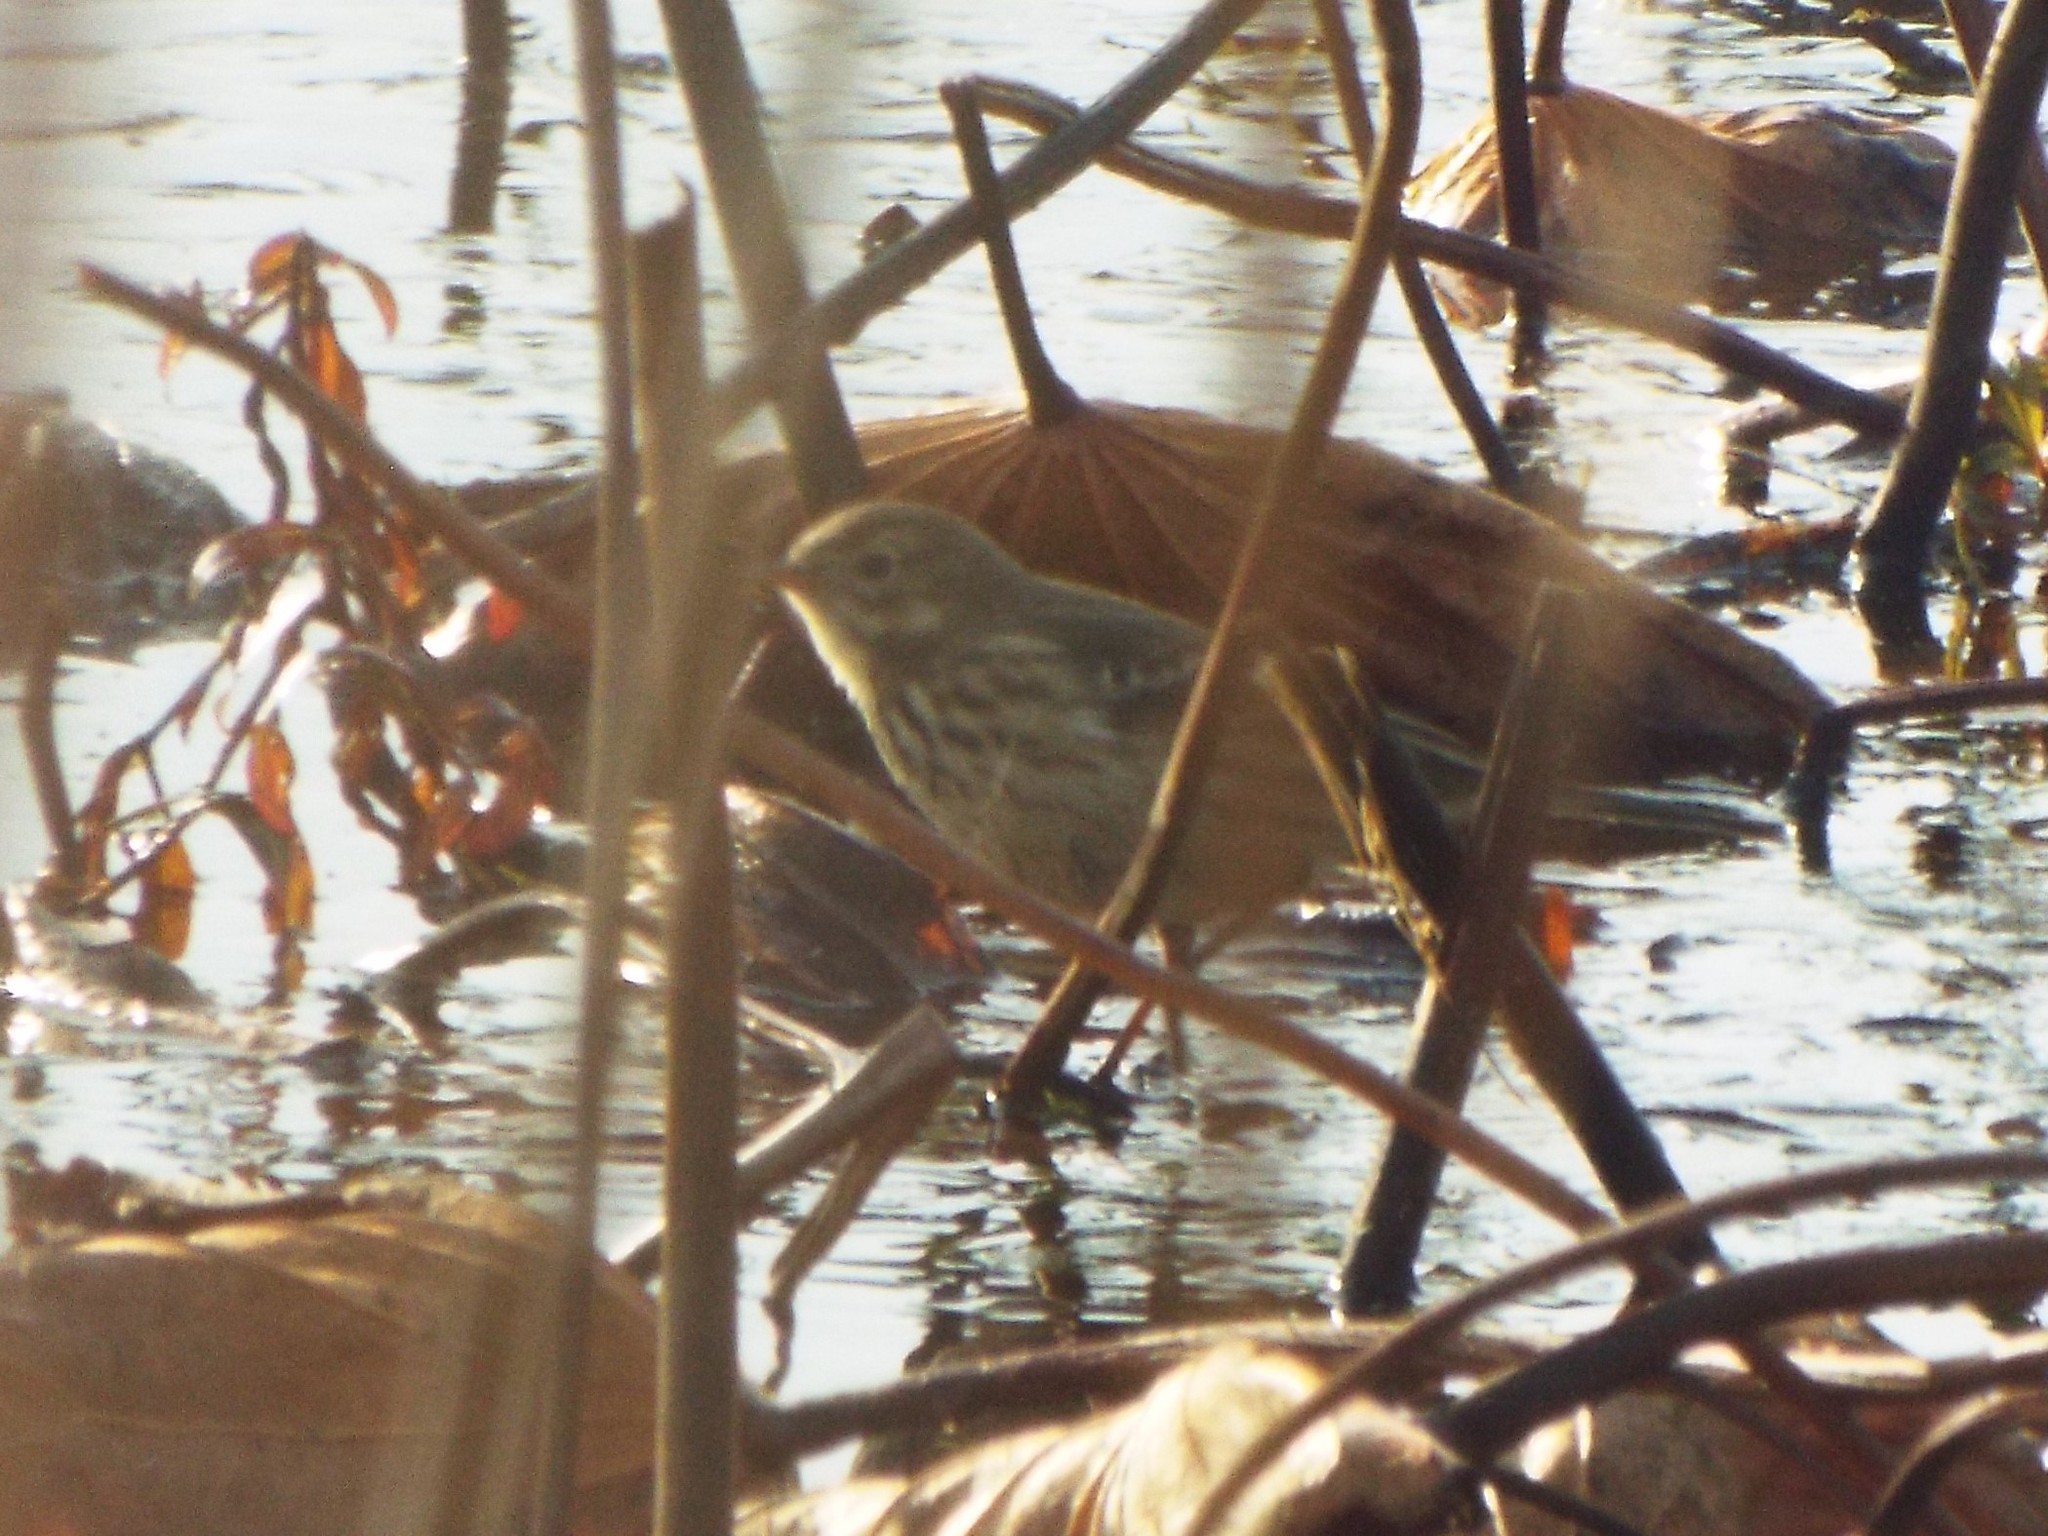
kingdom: Animalia
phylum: Chordata
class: Aves
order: Passeriformes
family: Motacillidae
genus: Anthus
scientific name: Anthus rubescens
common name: Buff-bellied pipit
